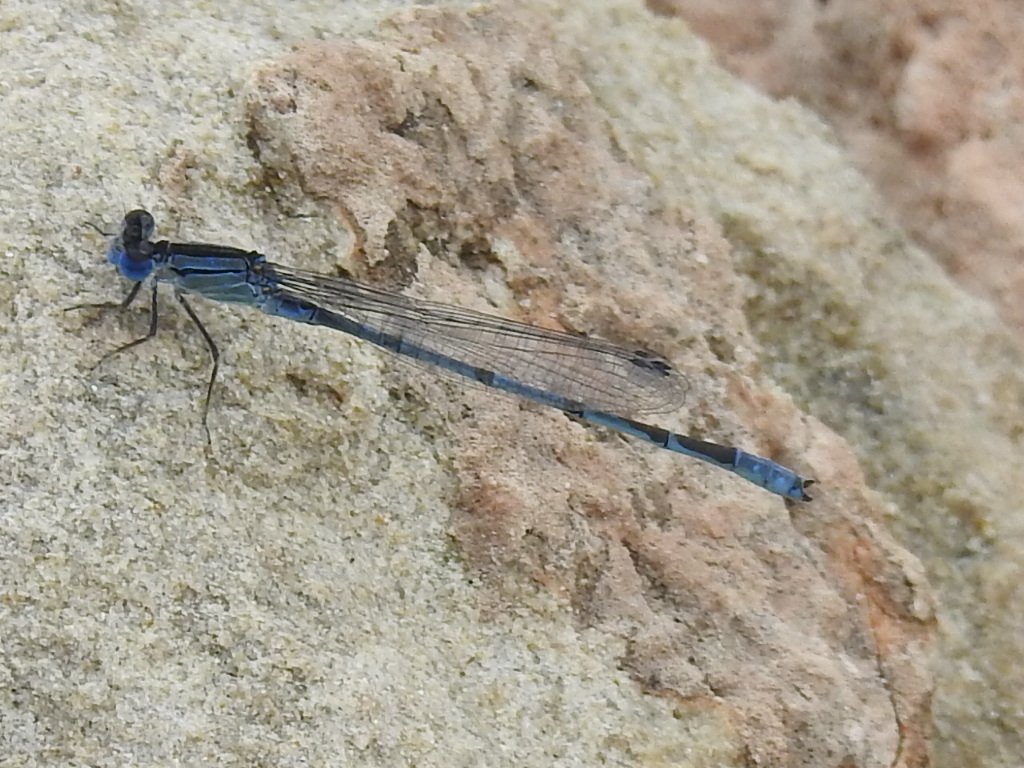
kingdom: Animalia
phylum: Arthropoda
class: Insecta
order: Odonata
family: Coenagrionidae
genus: Enallagma
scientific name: Enallagma civile
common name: Damselfly
